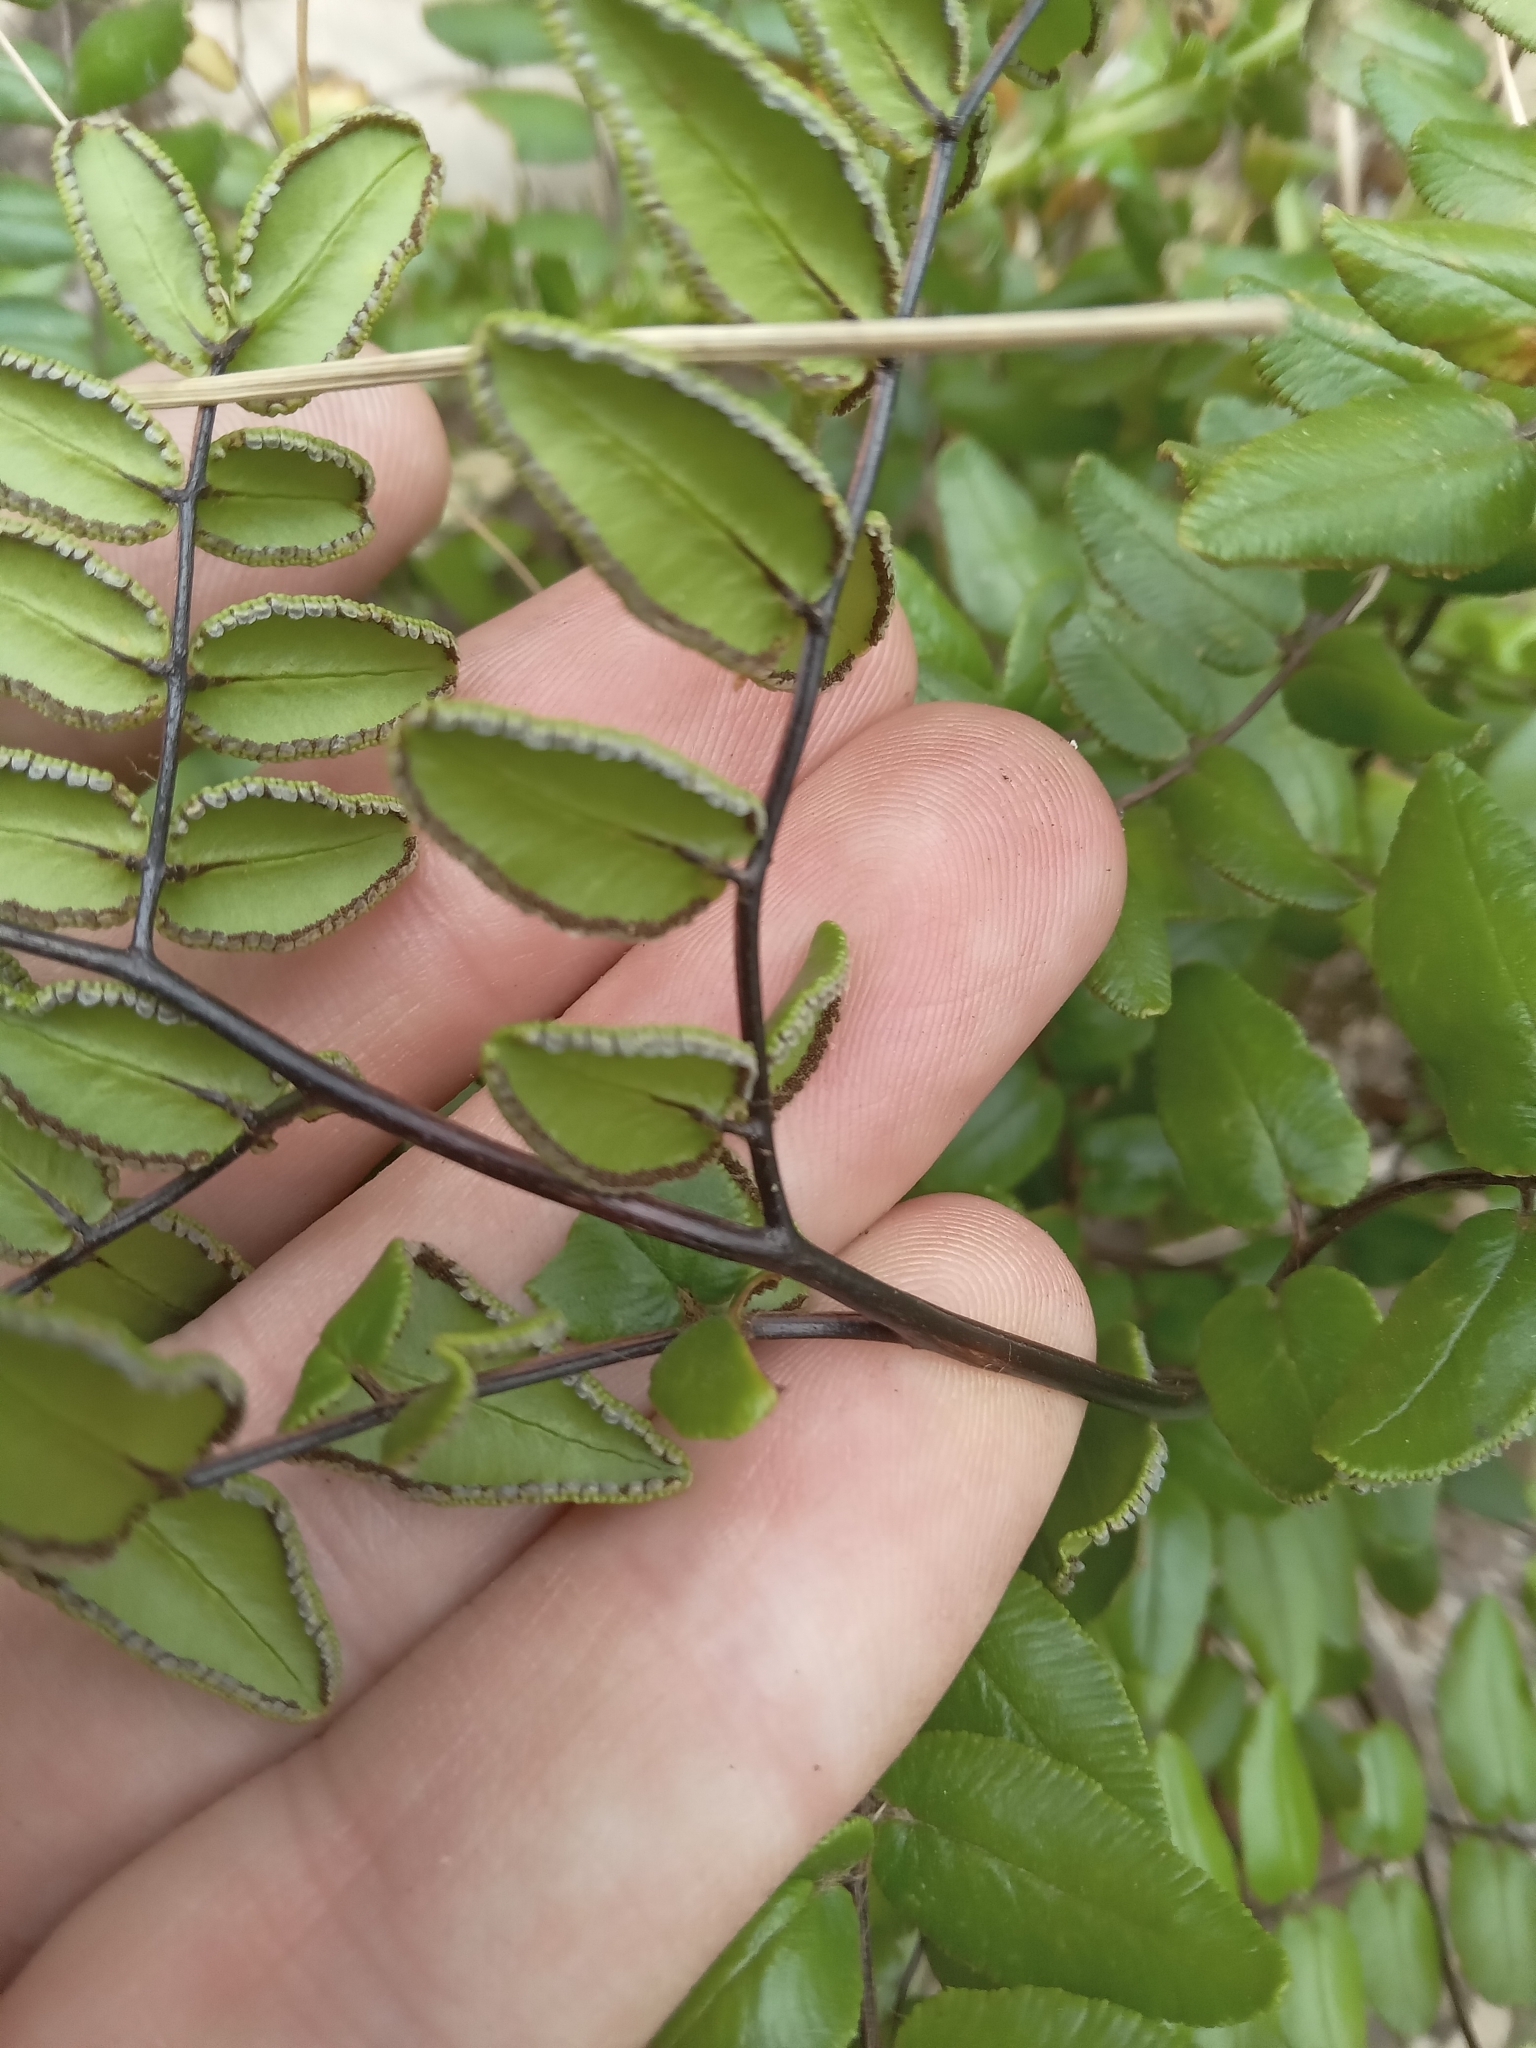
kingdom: Plantae
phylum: Tracheophyta
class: Polypodiopsida
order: Polypodiales
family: Pteridaceae
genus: Pellaea
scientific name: Pellaea pteroides
